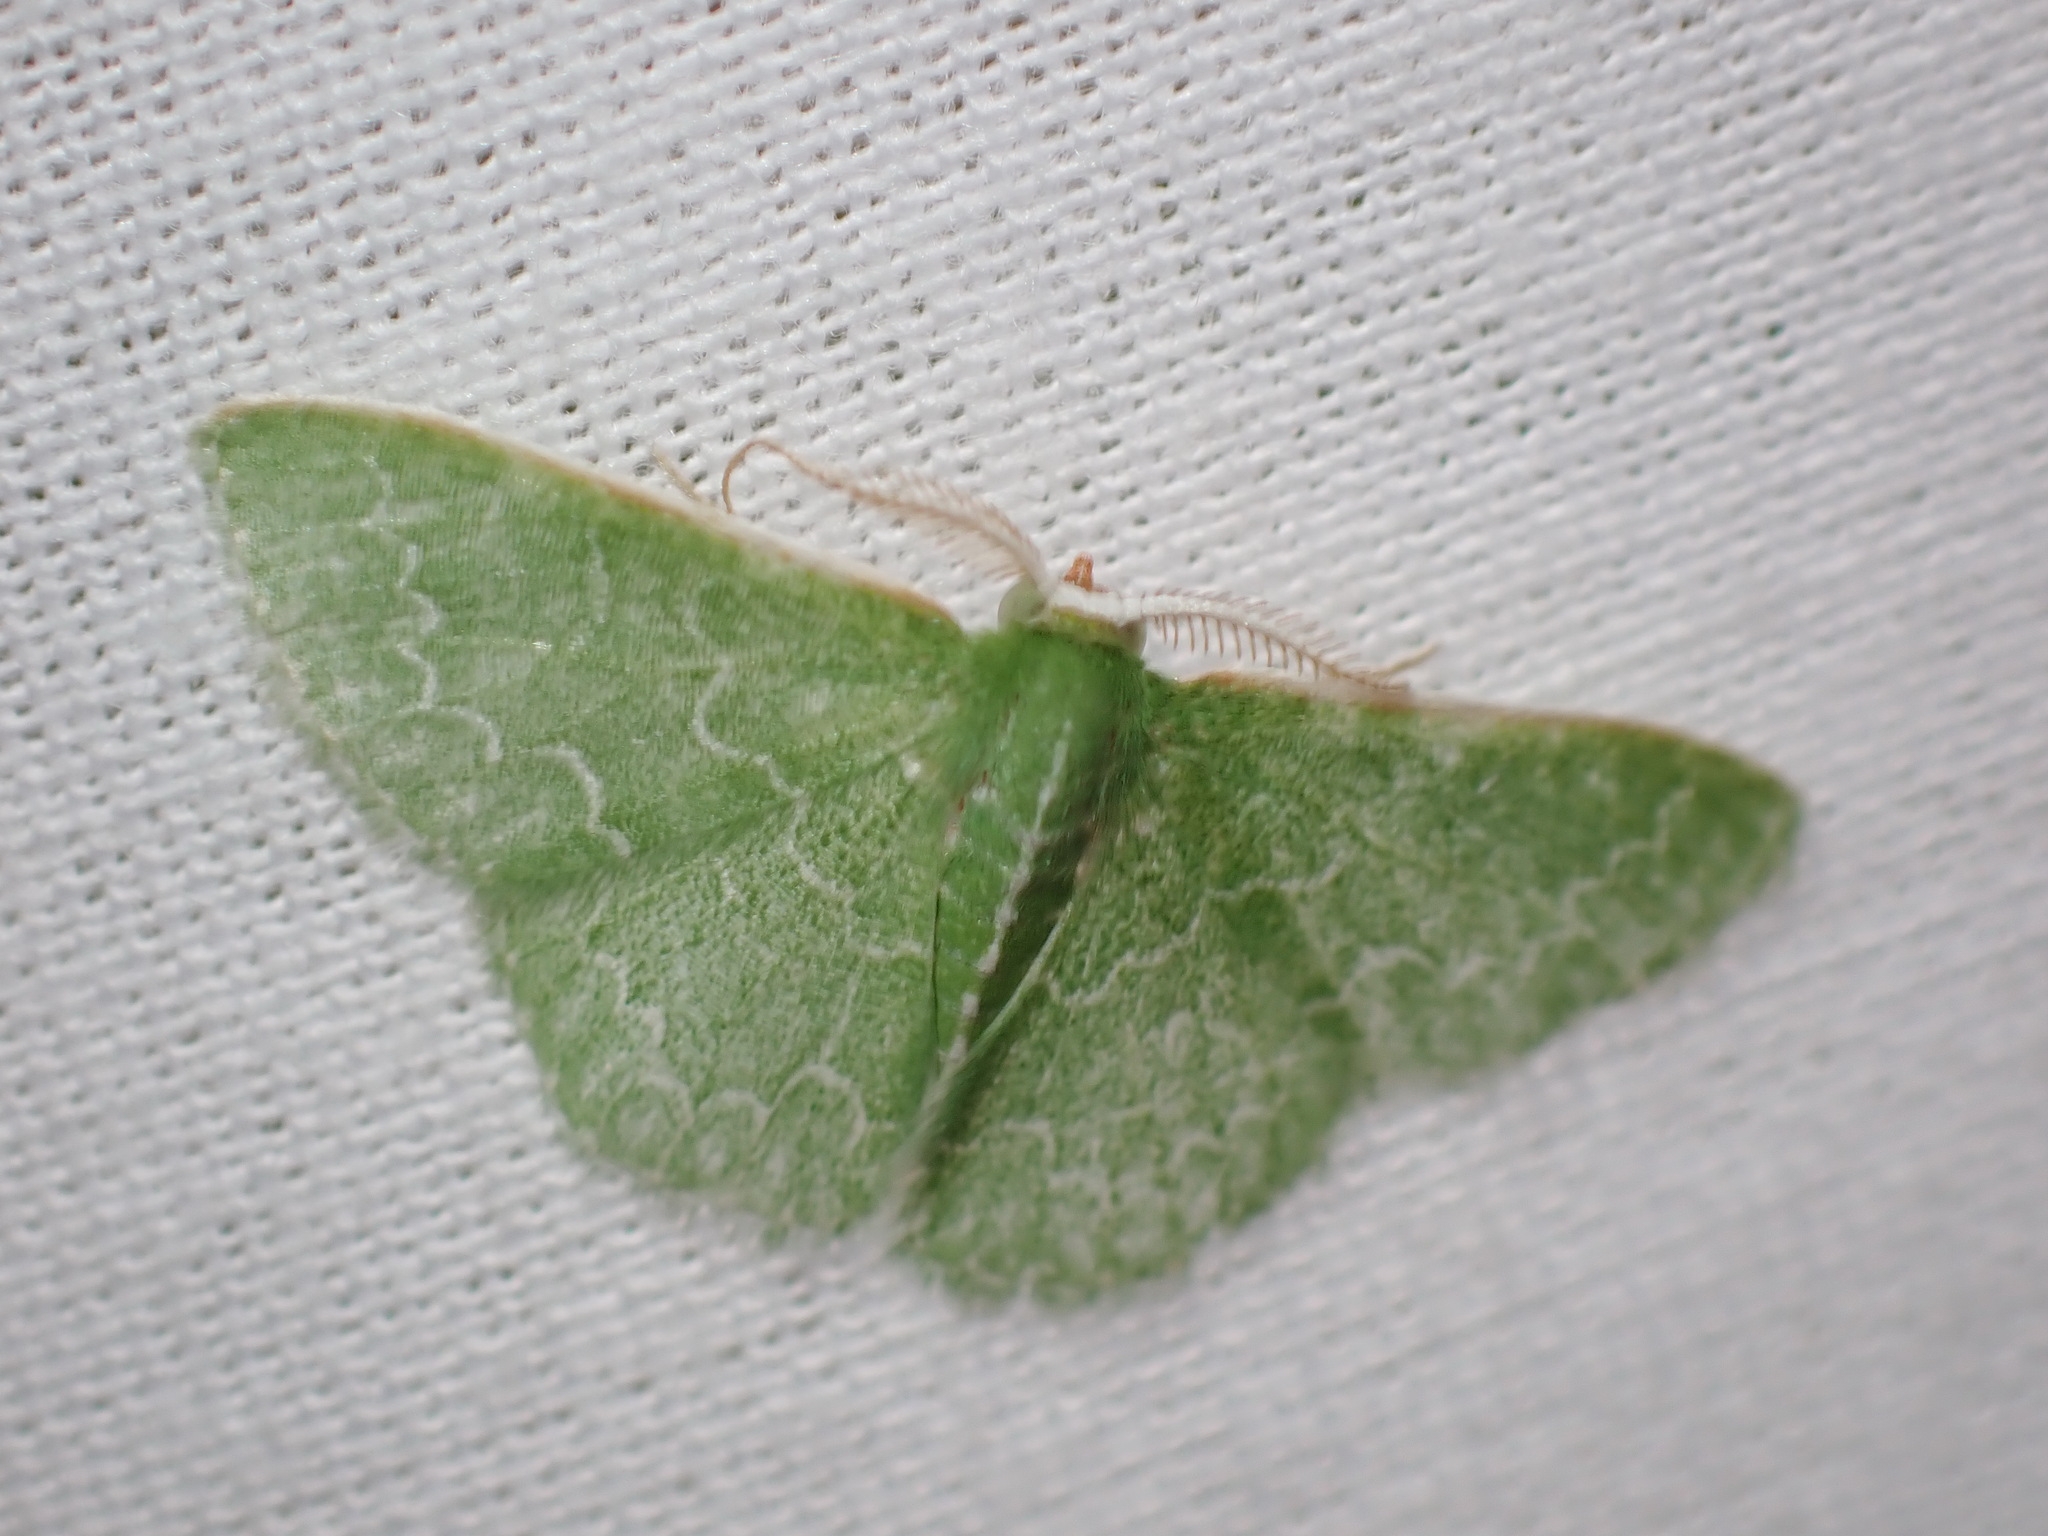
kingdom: Animalia
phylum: Arthropoda
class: Insecta
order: Lepidoptera
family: Geometridae
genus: Synchlora
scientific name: Synchlora frondaria
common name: Southern emerald
